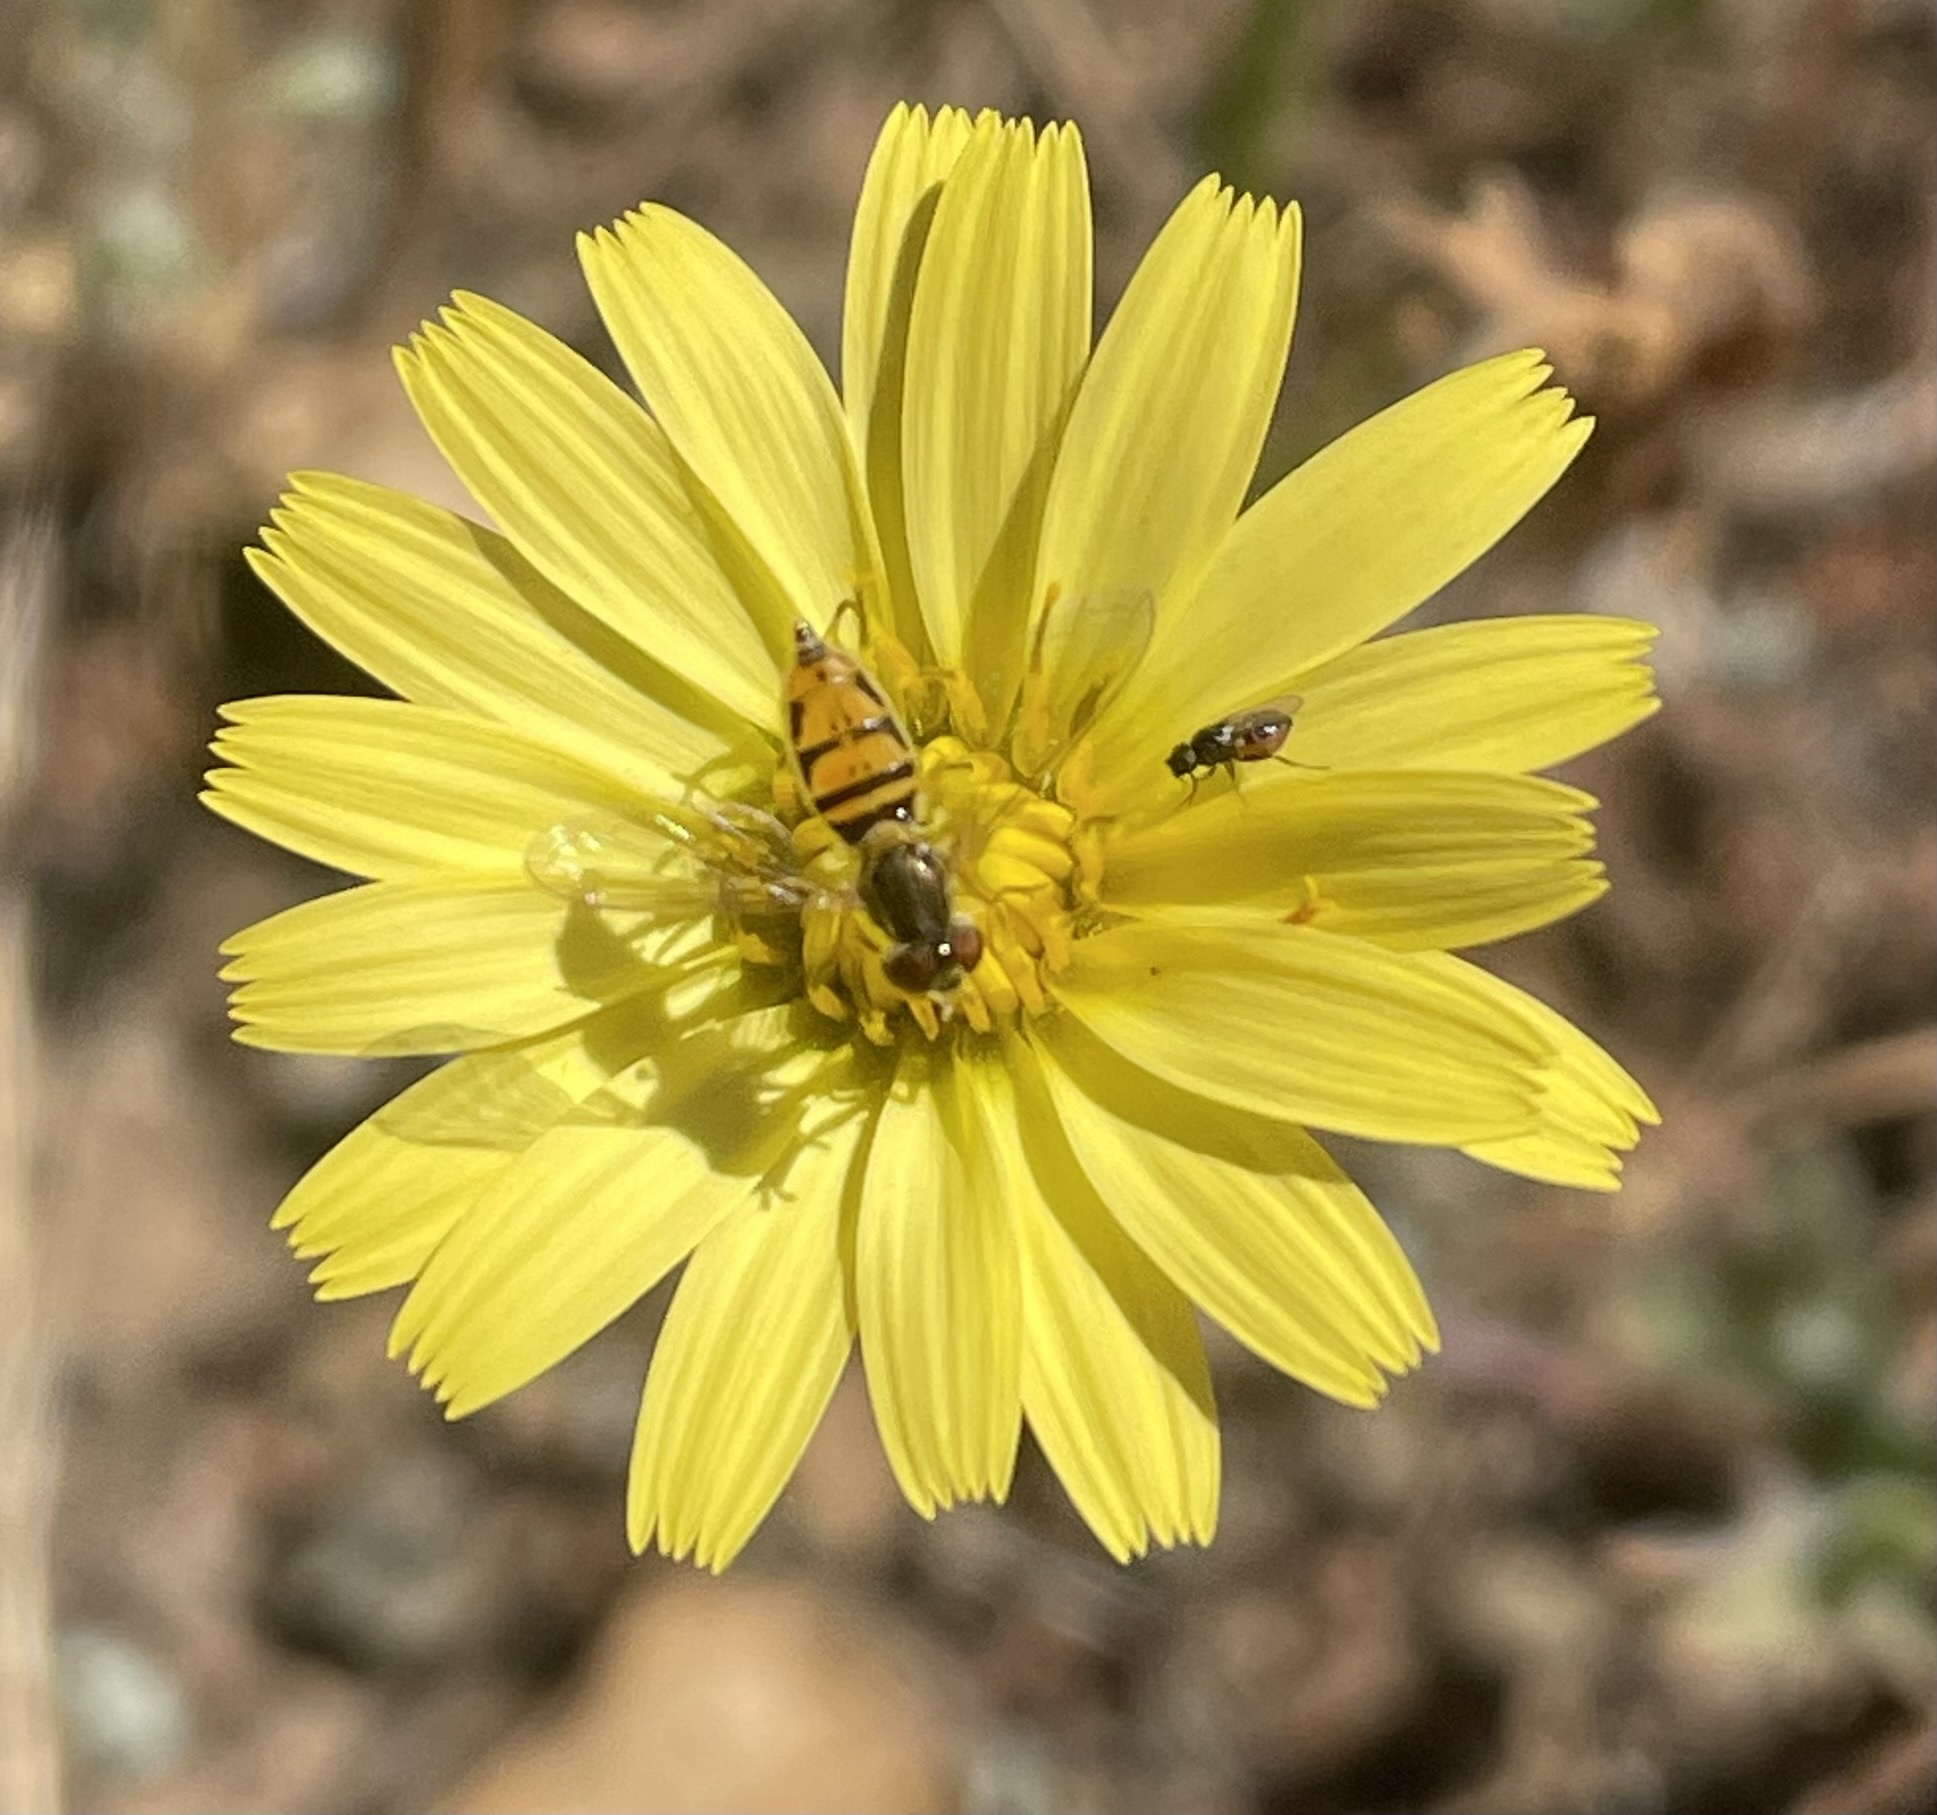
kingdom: Animalia
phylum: Arthropoda
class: Insecta
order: Diptera
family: Syrphidae
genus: Toxomerus
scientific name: Toxomerus marginatus
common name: Syrphid fly
